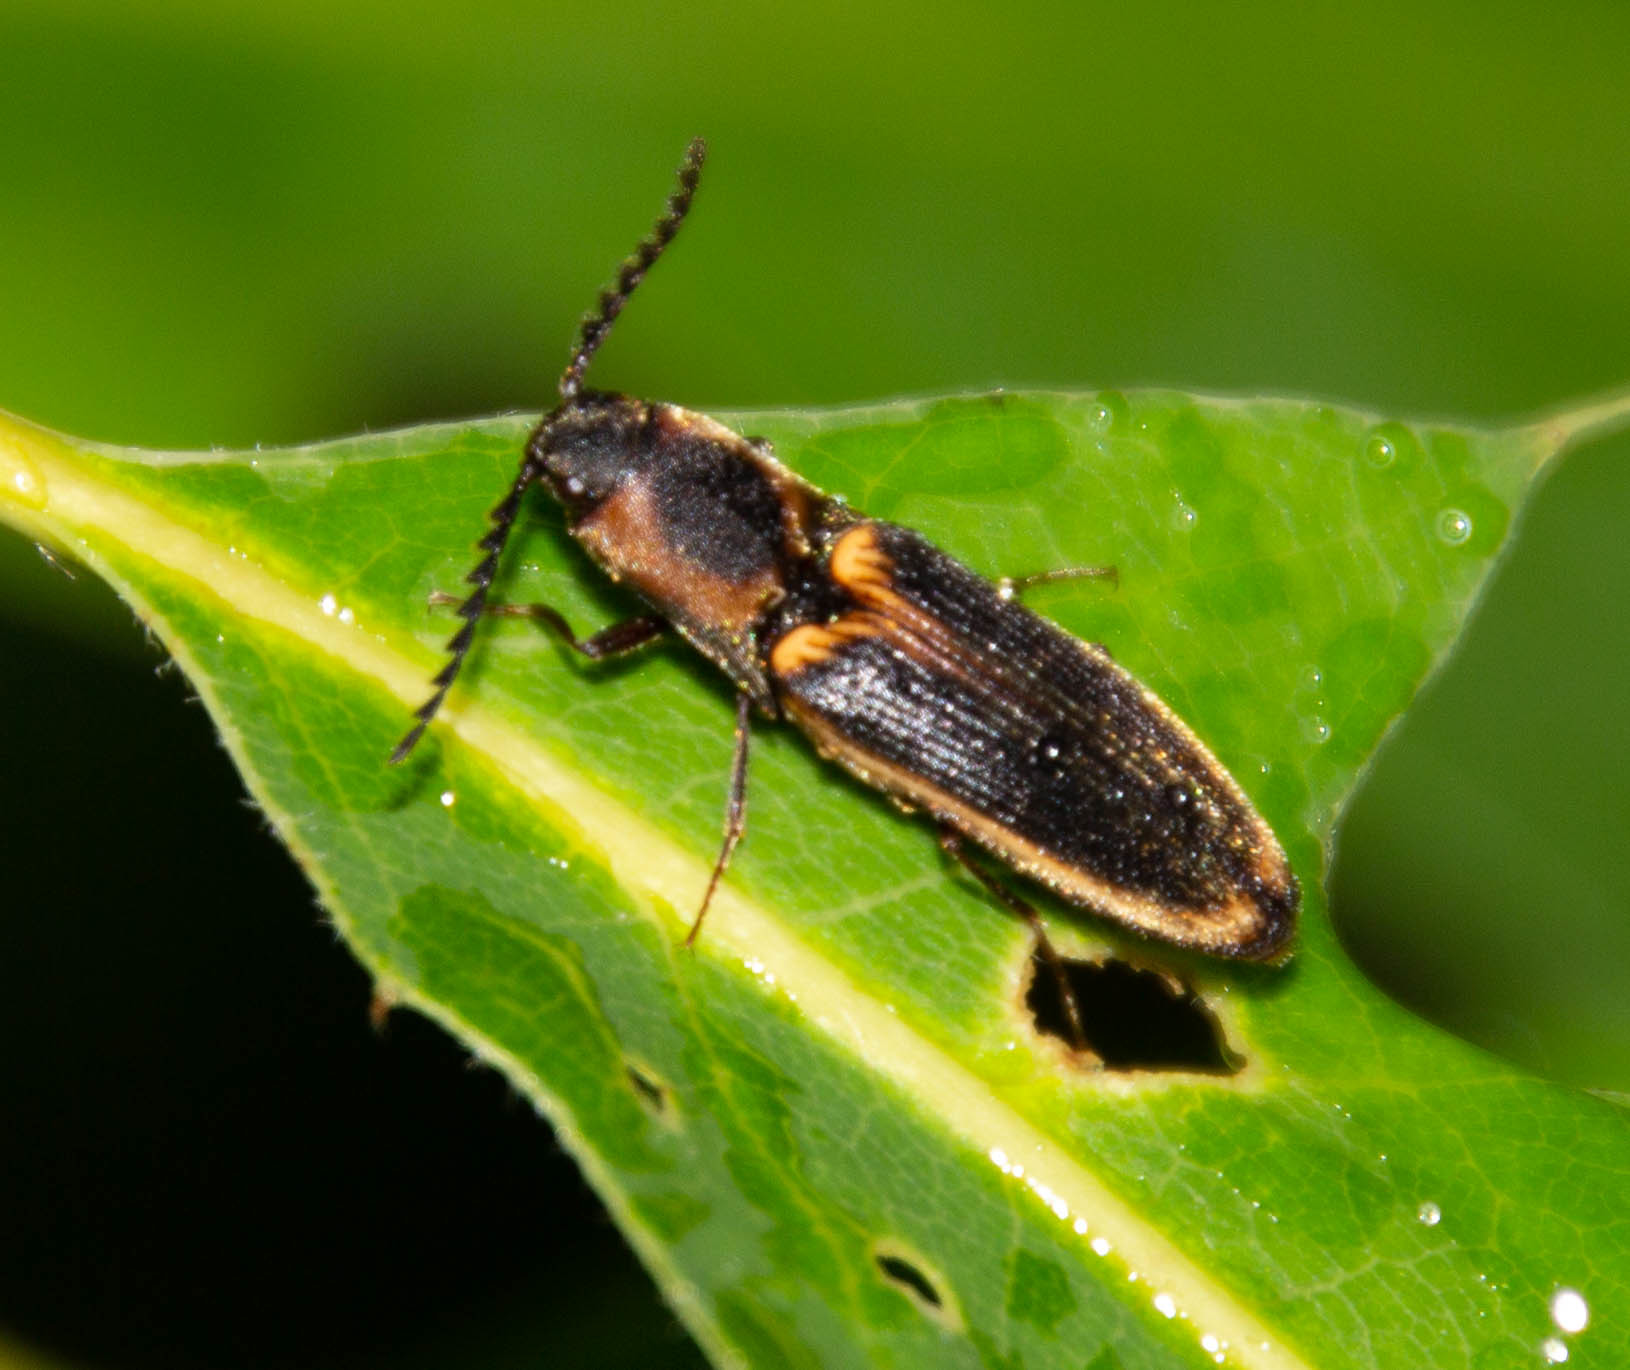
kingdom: Animalia
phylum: Arthropoda
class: Insecta
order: Coleoptera
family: Elateridae
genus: Megapenthes
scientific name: Megapenthes
